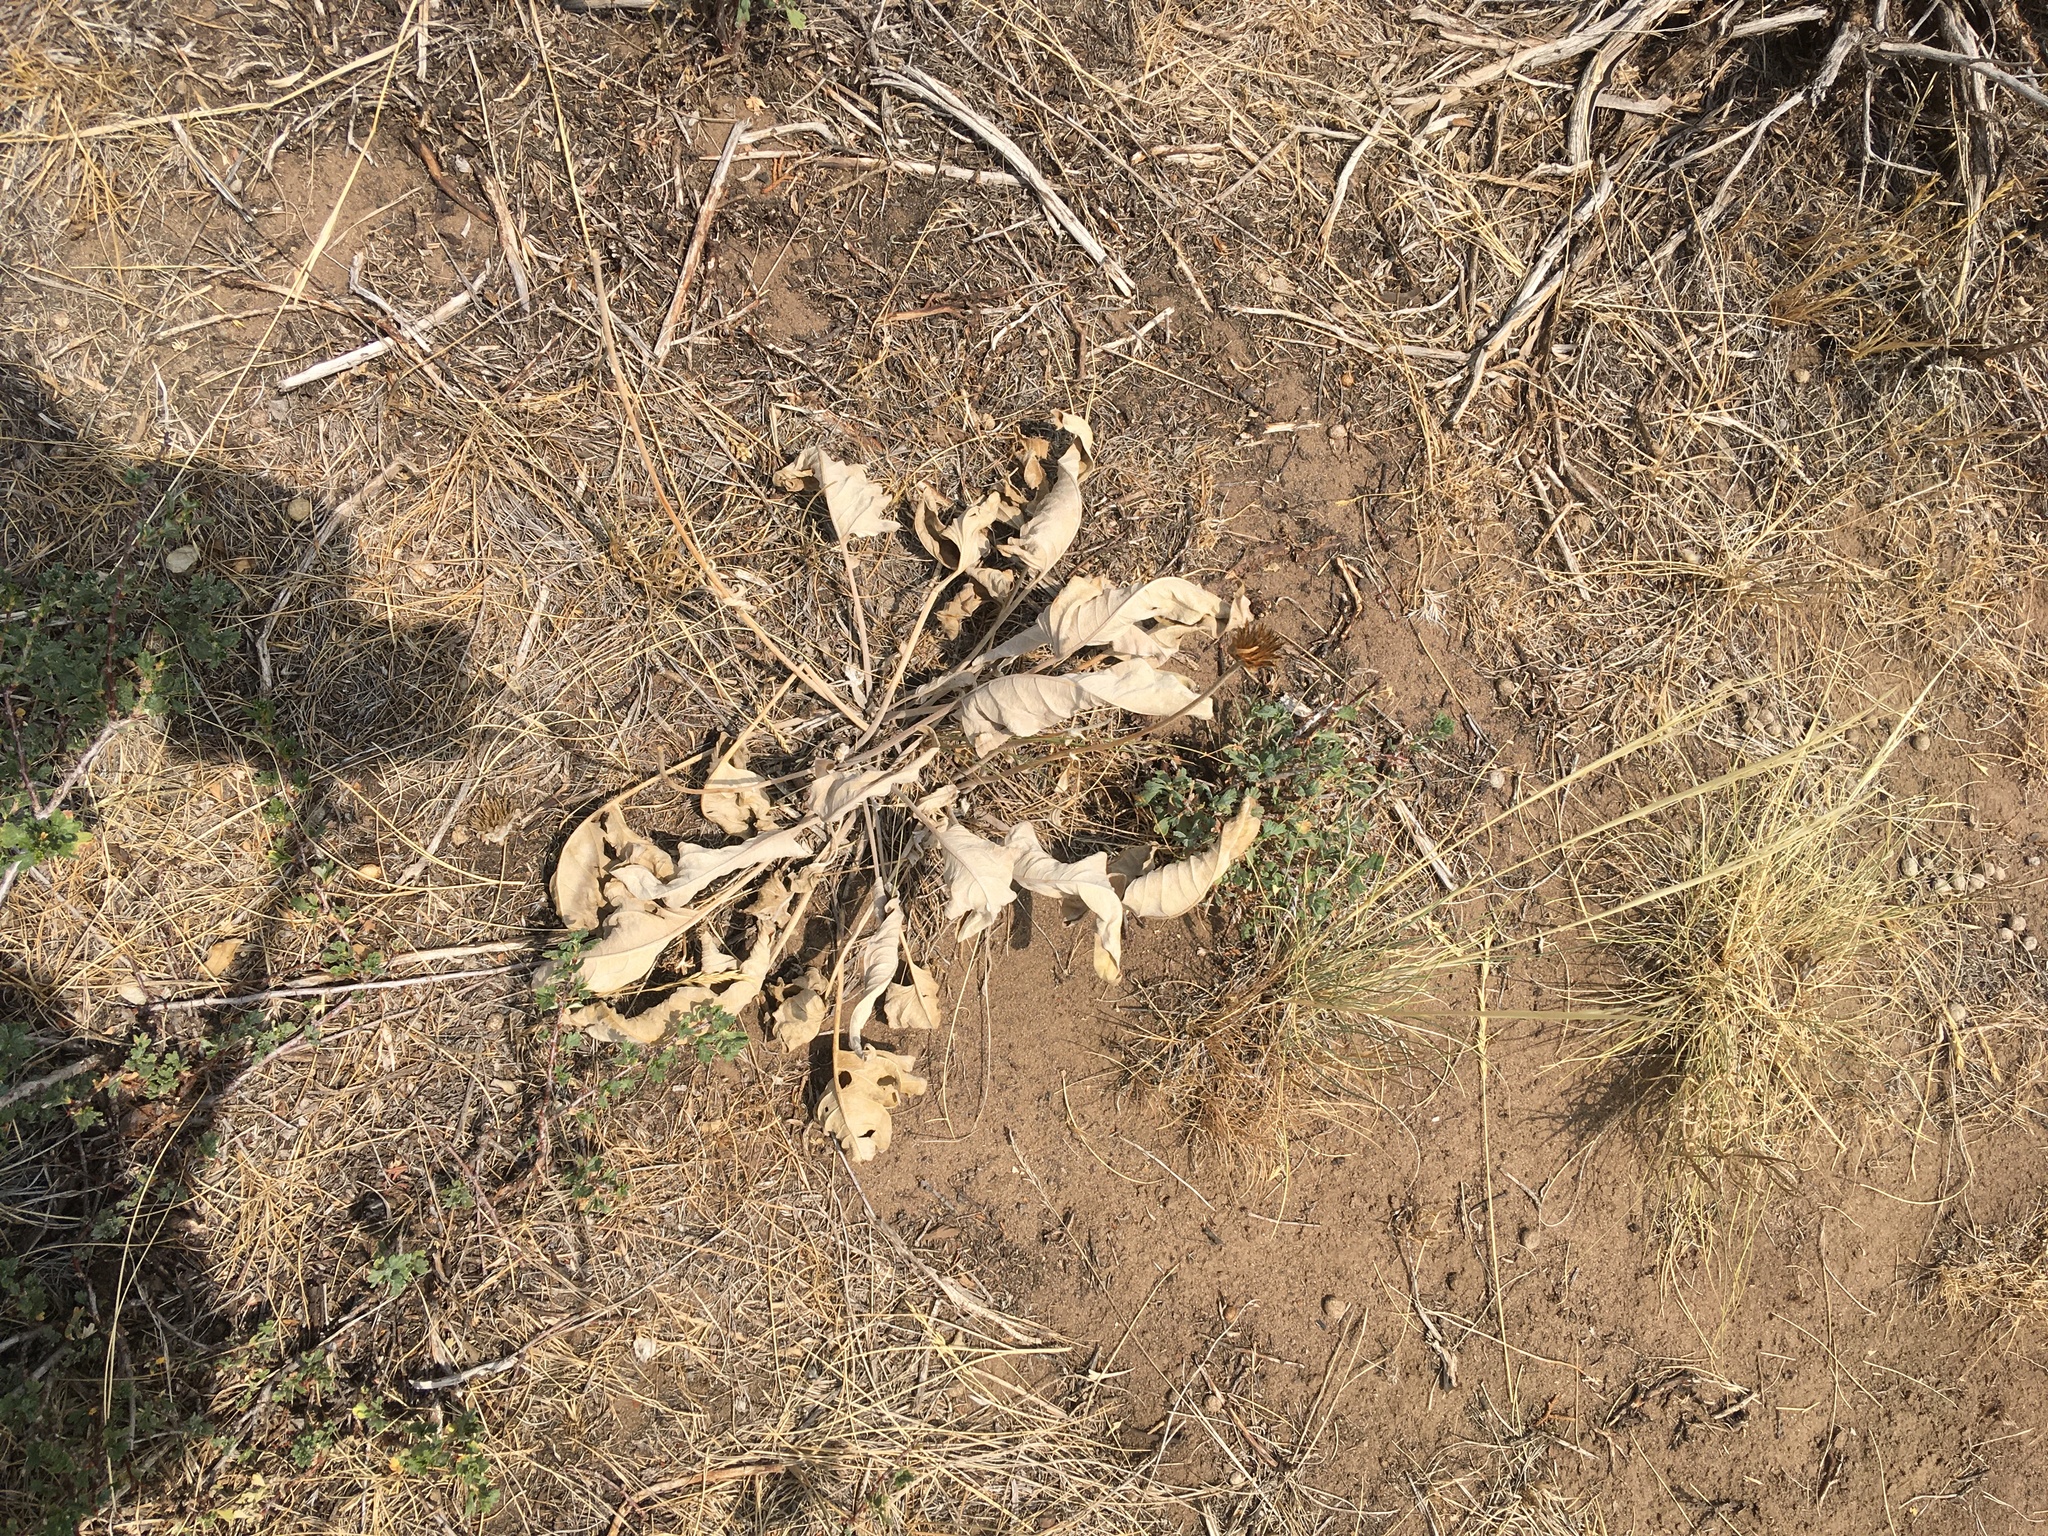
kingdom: Plantae
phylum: Tracheophyta
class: Magnoliopsida
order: Asterales
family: Asteraceae
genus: Wyethia
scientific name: Wyethia sagittata
